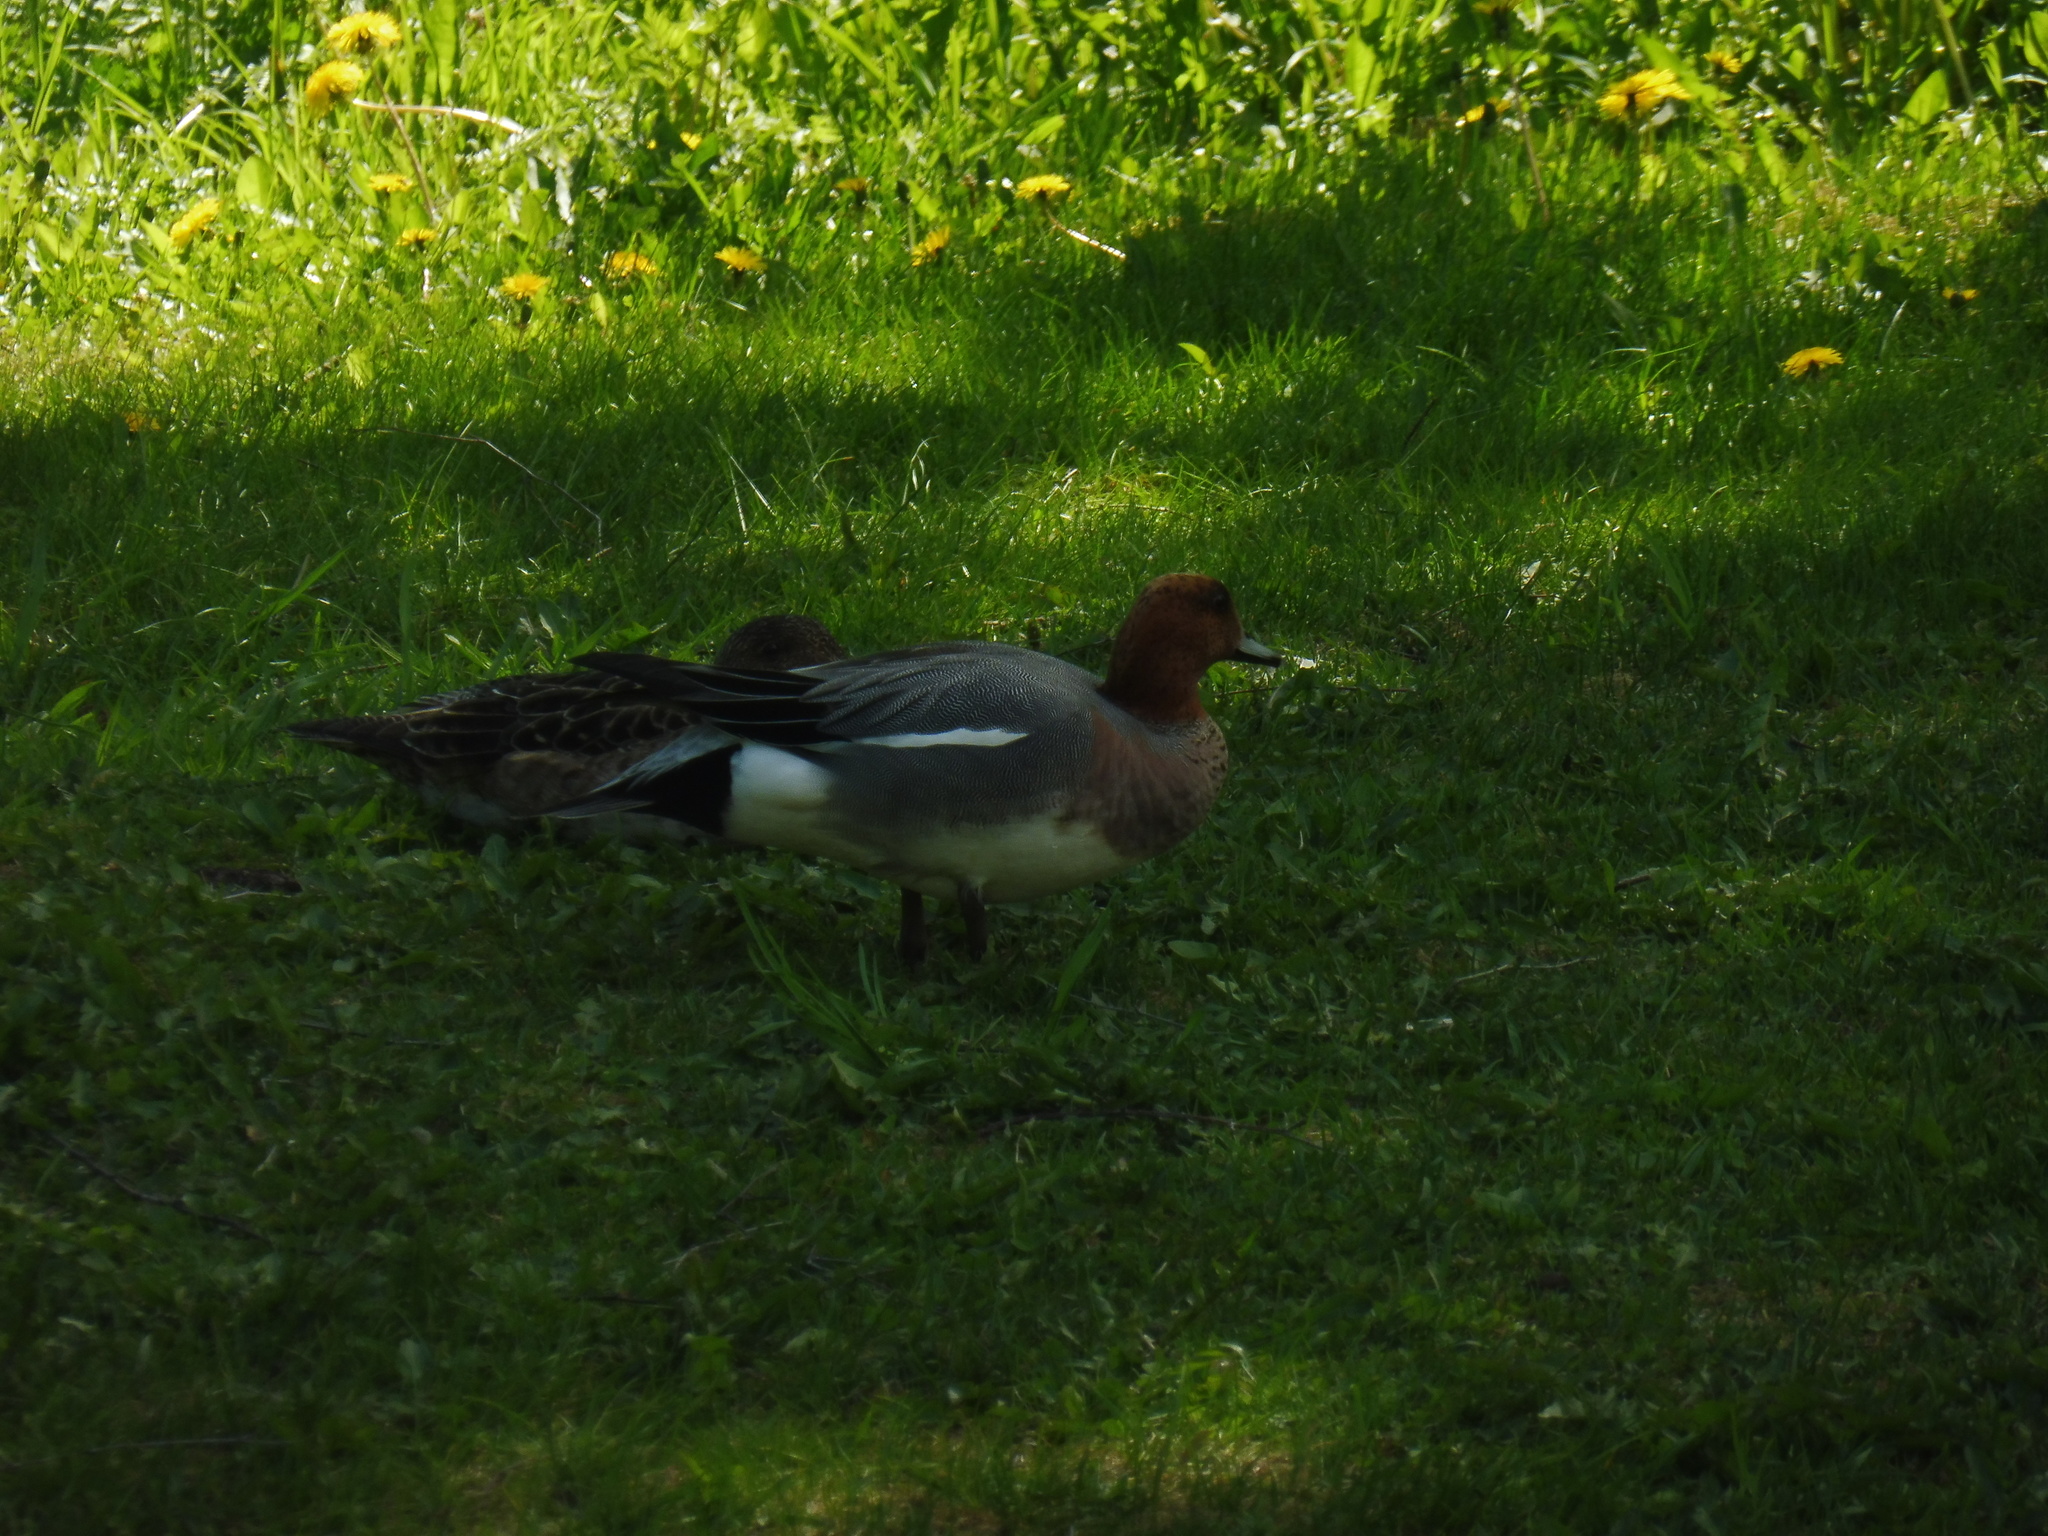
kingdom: Animalia
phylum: Chordata
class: Aves
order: Anseriformes
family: Anatidae
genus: Mareca
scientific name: Mareca penelope
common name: Eurasian wigeon
